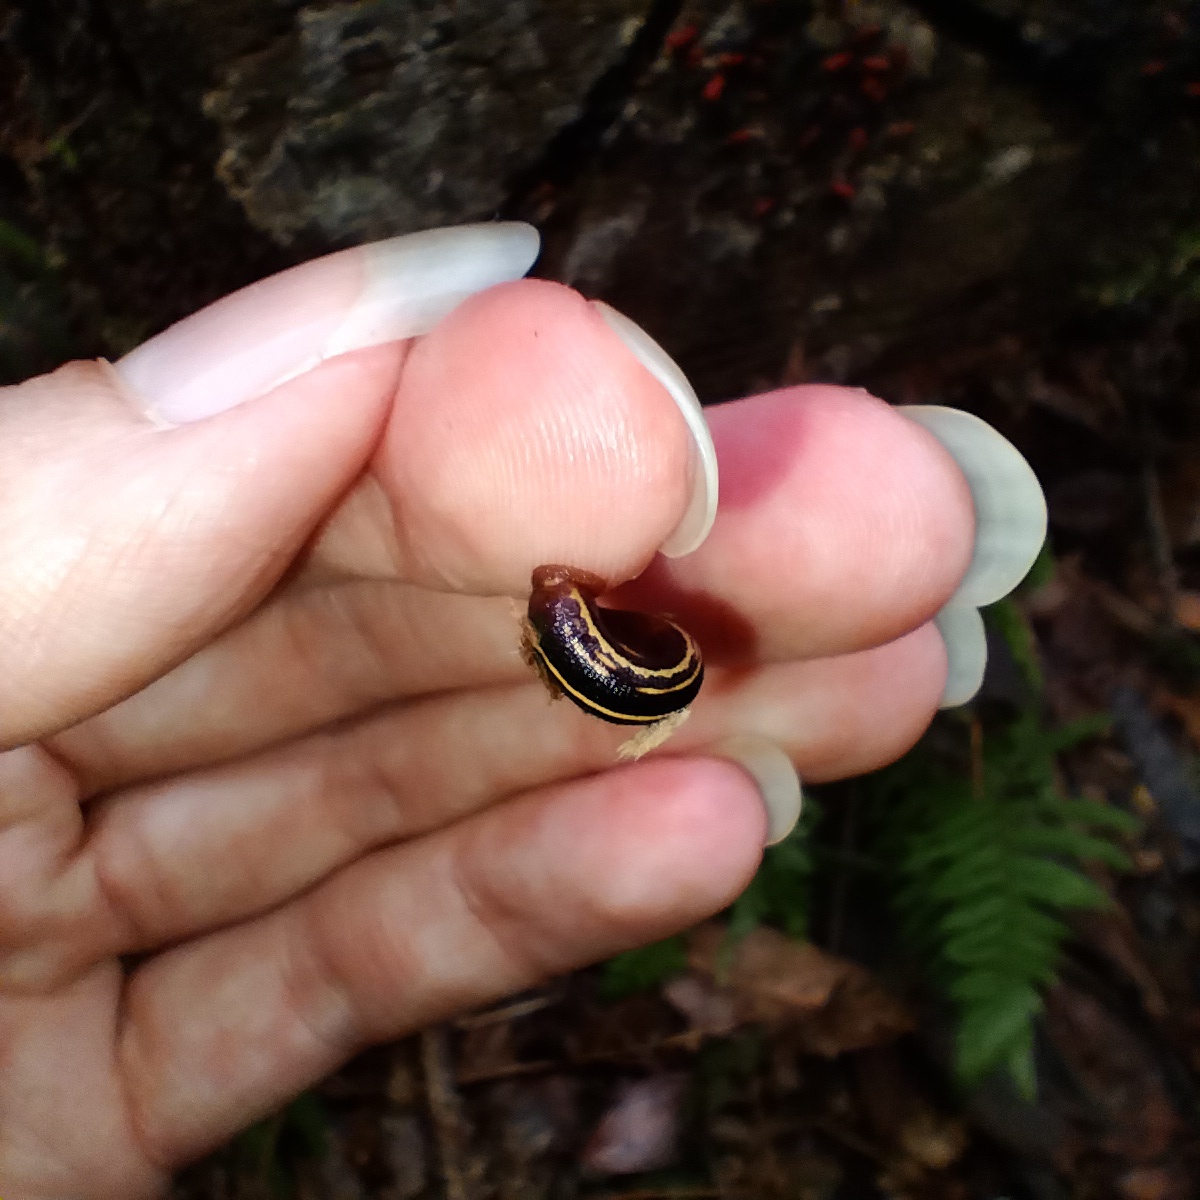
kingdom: Animalia
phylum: Annelida
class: Clitellata
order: Arhynchobdellida
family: Haemadipsidae
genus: Chtonobdella
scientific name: Chtonobdella limbata
